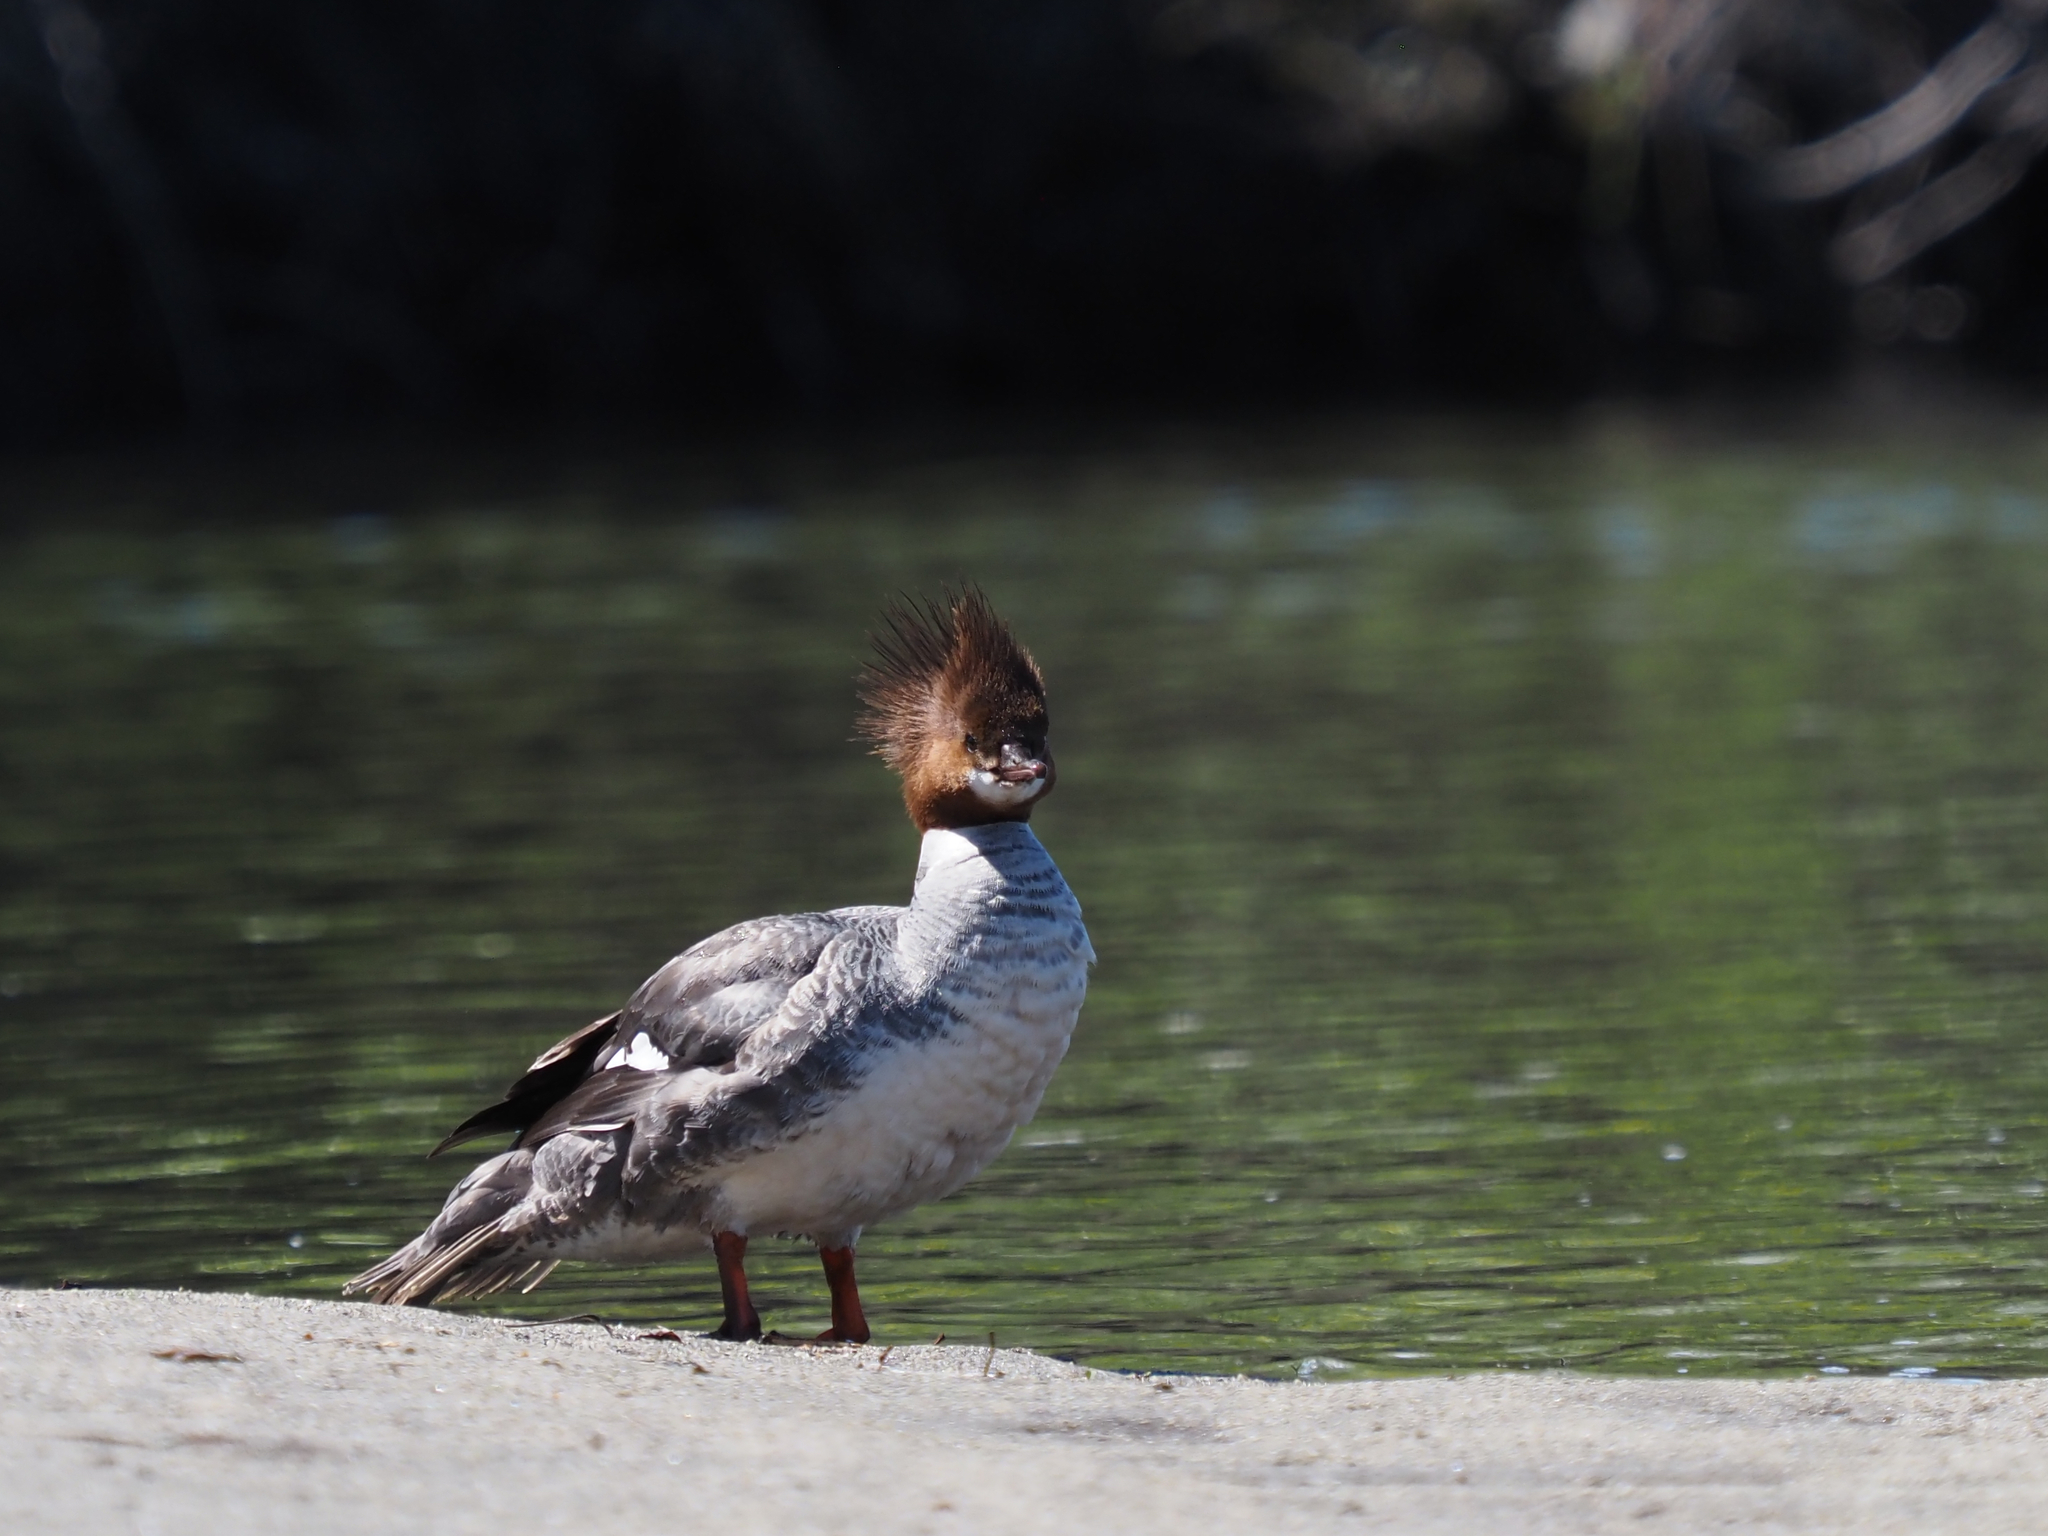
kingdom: Animalia
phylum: Chordata
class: Aves
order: Anseriformes
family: Anatidae
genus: Mergus
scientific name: Mergus merganser
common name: Common merganser
